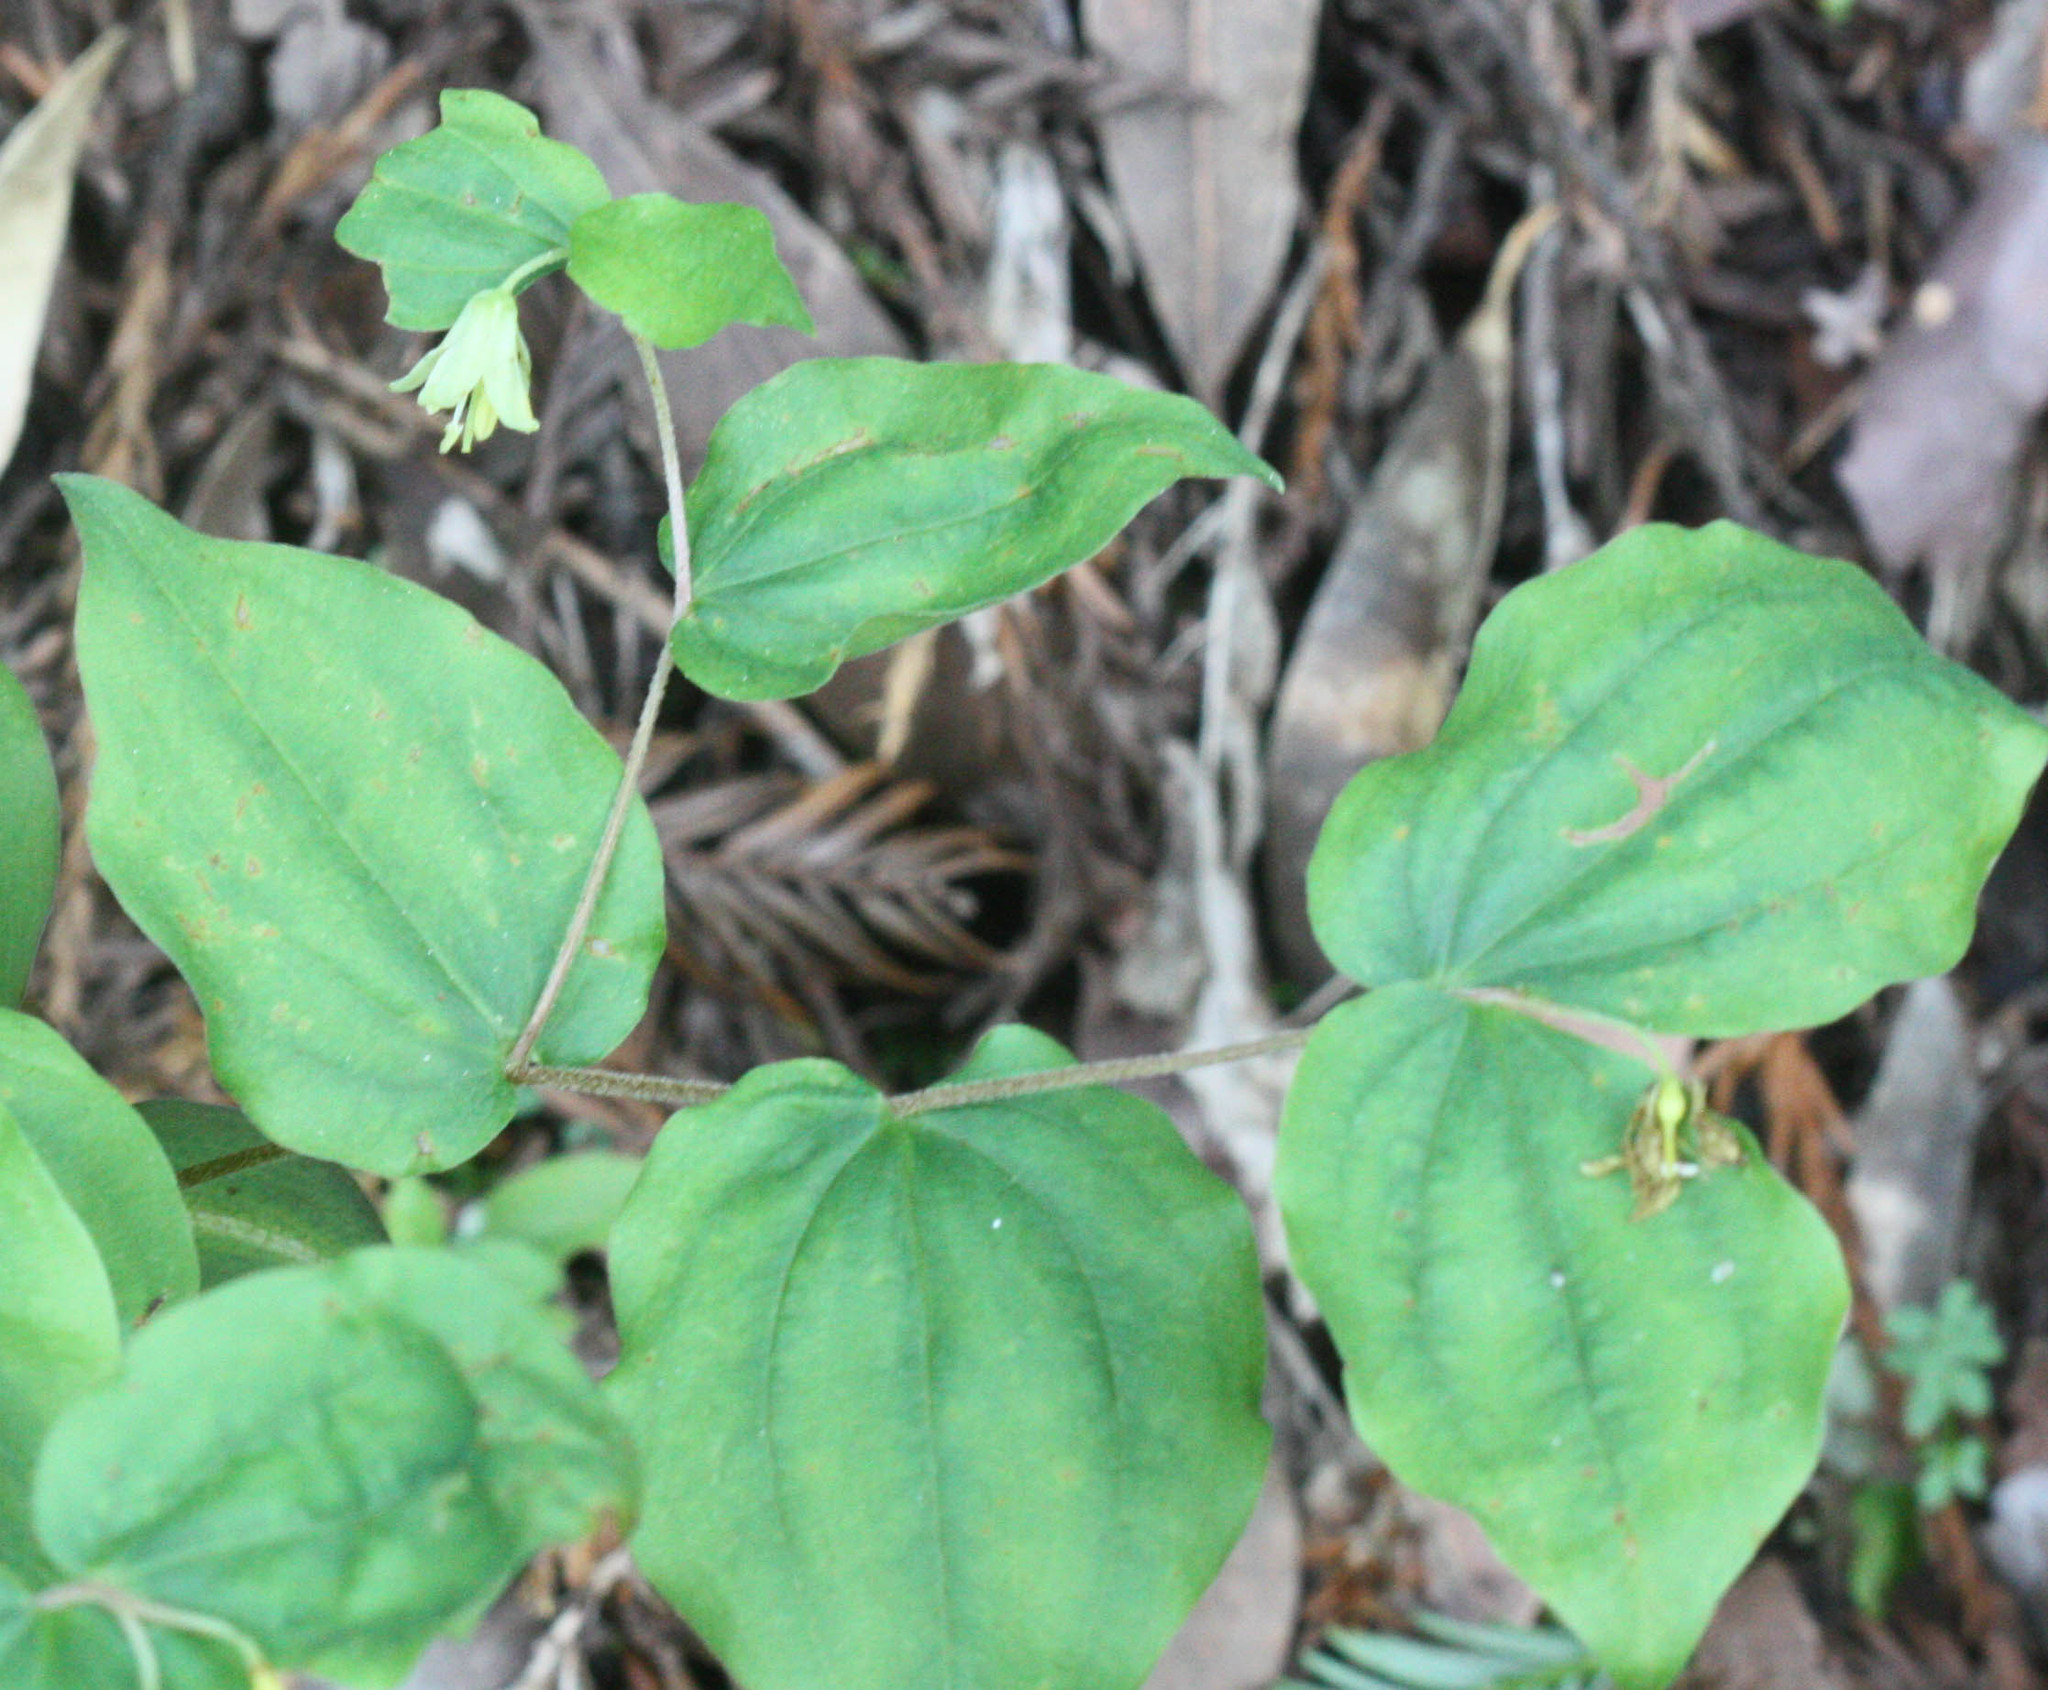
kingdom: Plantae
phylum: Tracheophyta
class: Liliopsida
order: Liliales
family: Liliaceae
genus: Prosartes
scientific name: Prosartes hookeri
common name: Fairy-bells
